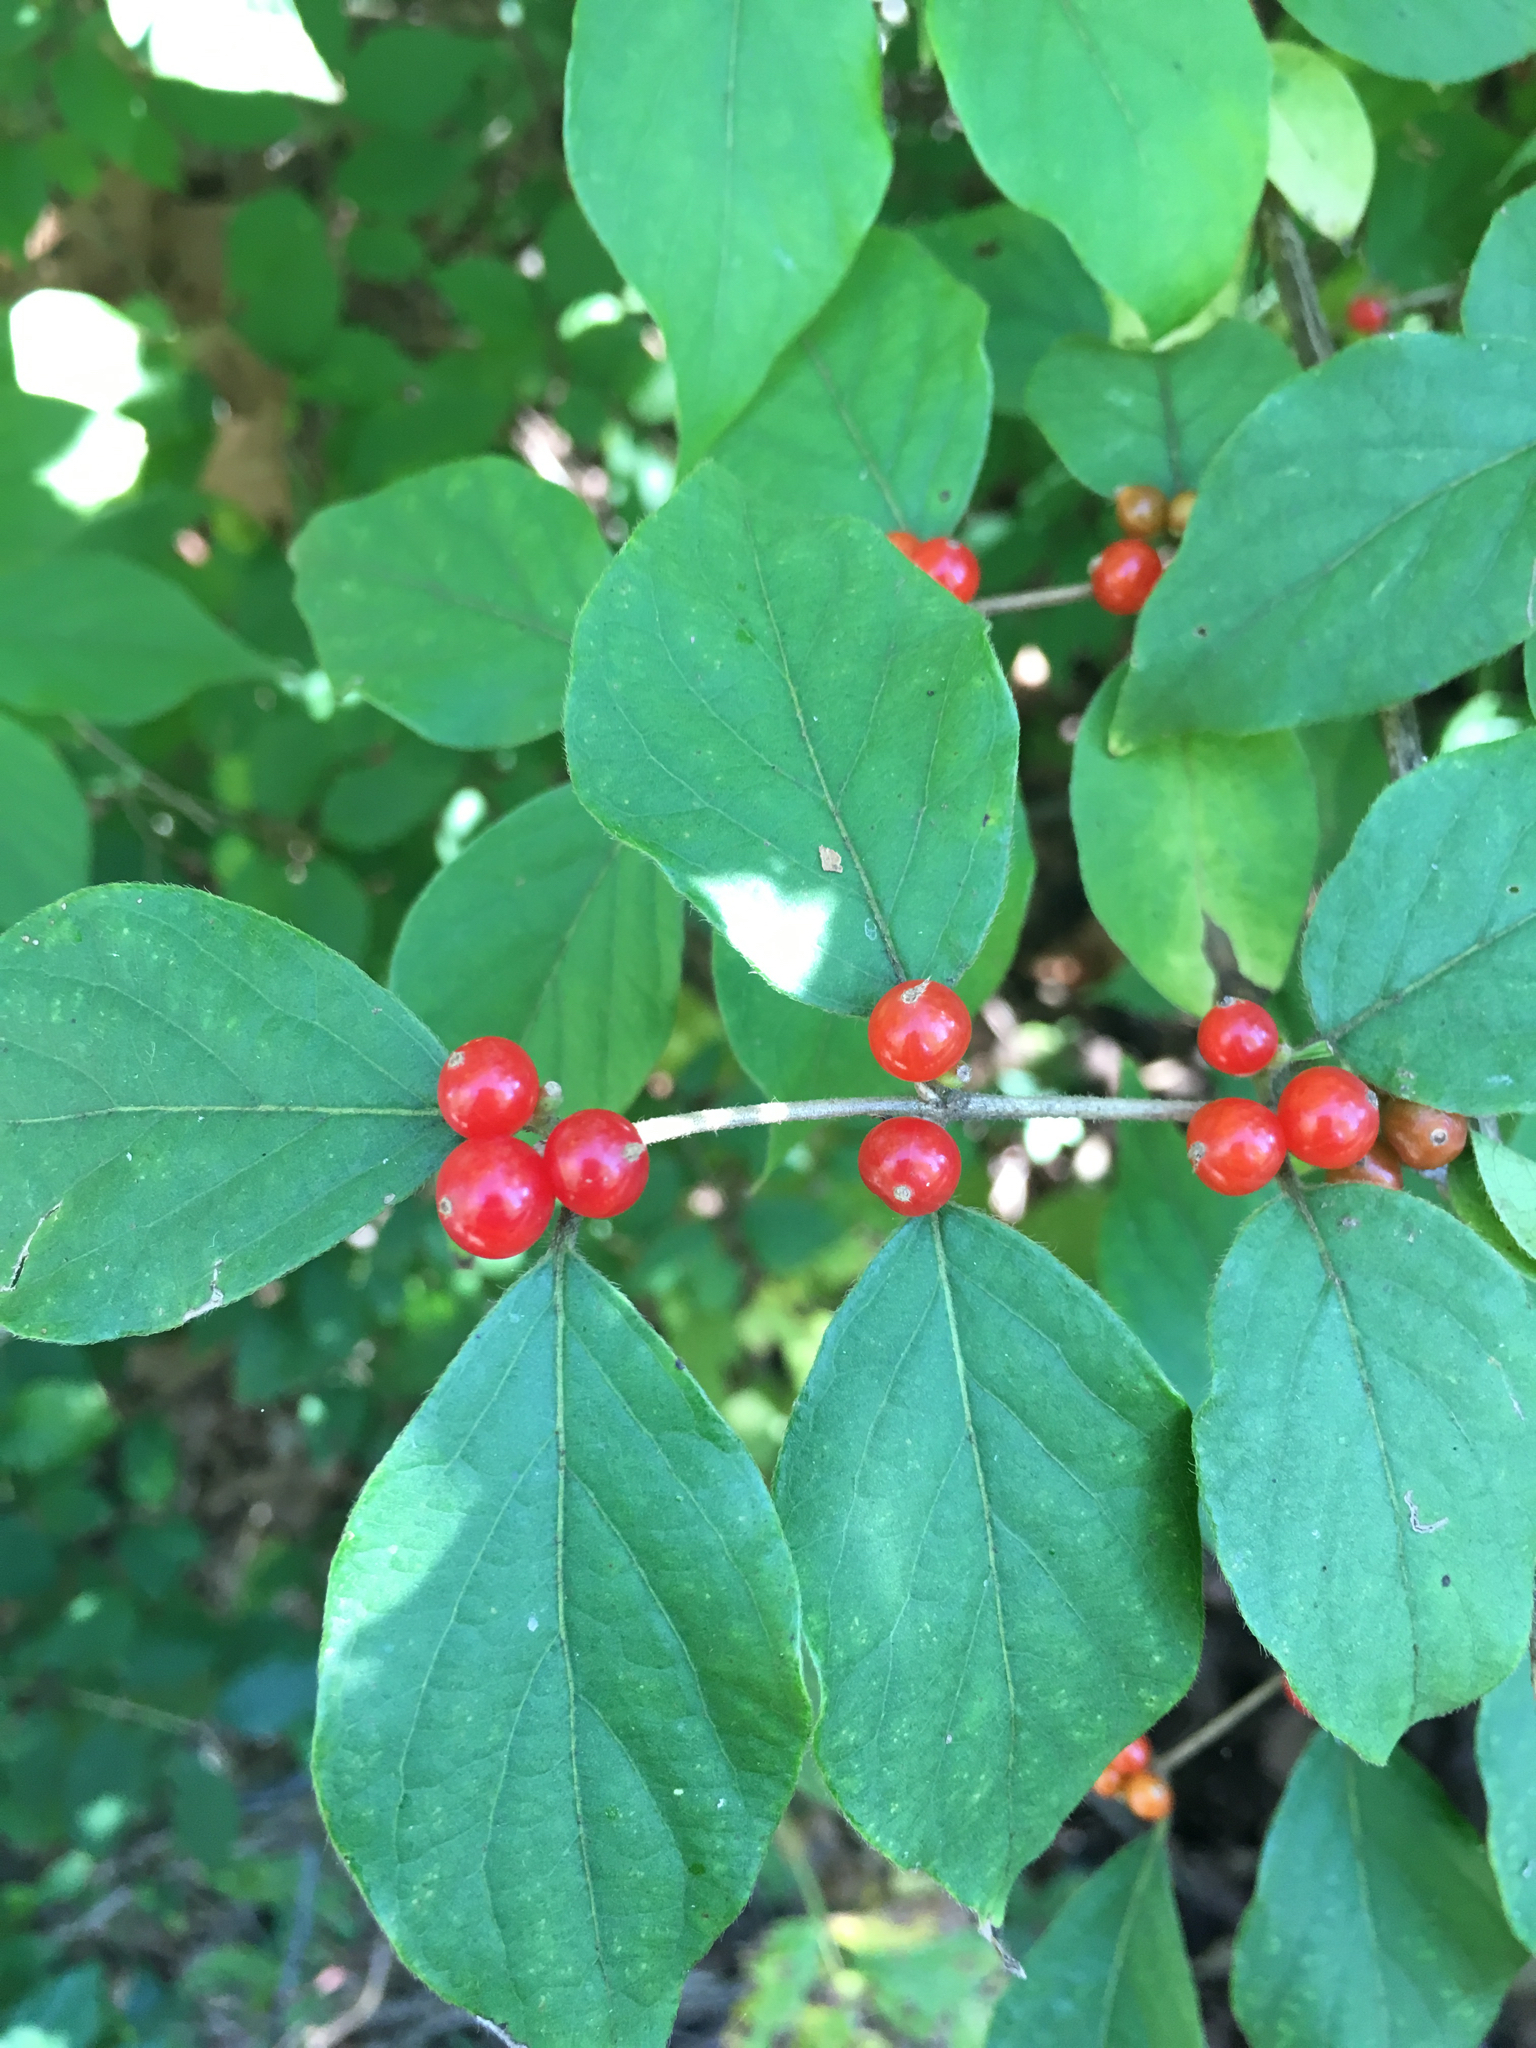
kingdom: Plantae
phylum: Tracheophyta
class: Magnoliopsida
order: Dipsacales
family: Caprifoliaceae
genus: Lonicera
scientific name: Lonicera maackii
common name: Amur honeysuckle
